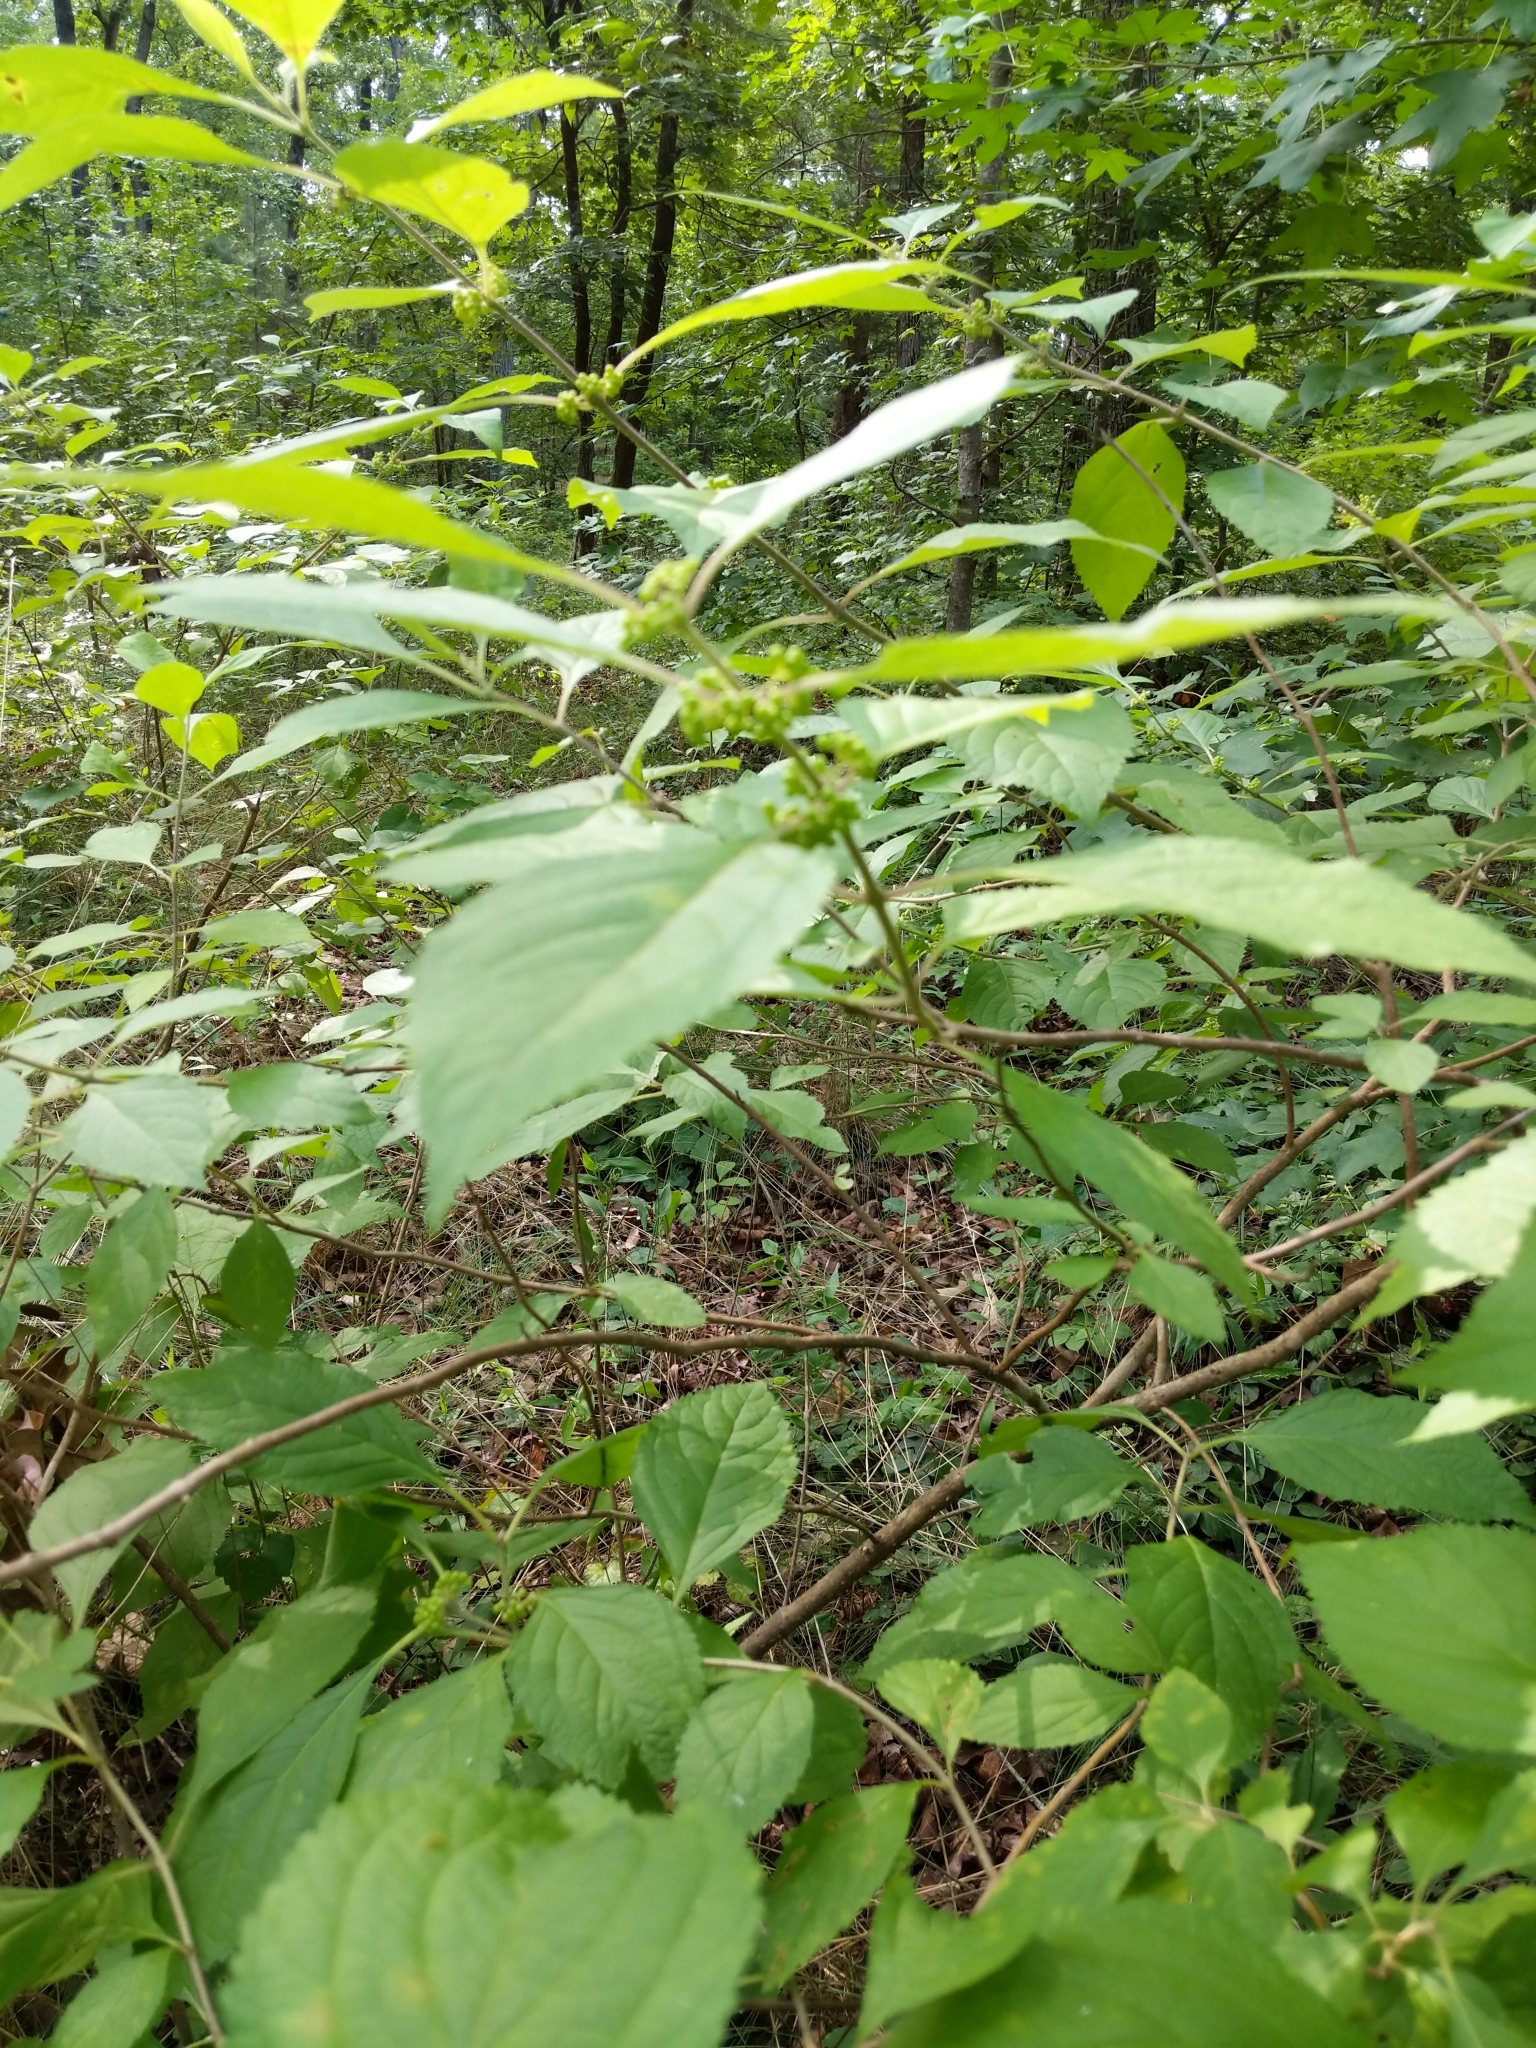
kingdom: Plantae
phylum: Tracheophyta
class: Magnoliopsida
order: Lamiales
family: Lamiaceae
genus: Callicarpa
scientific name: Callicarpa americana
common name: American beautyberry
